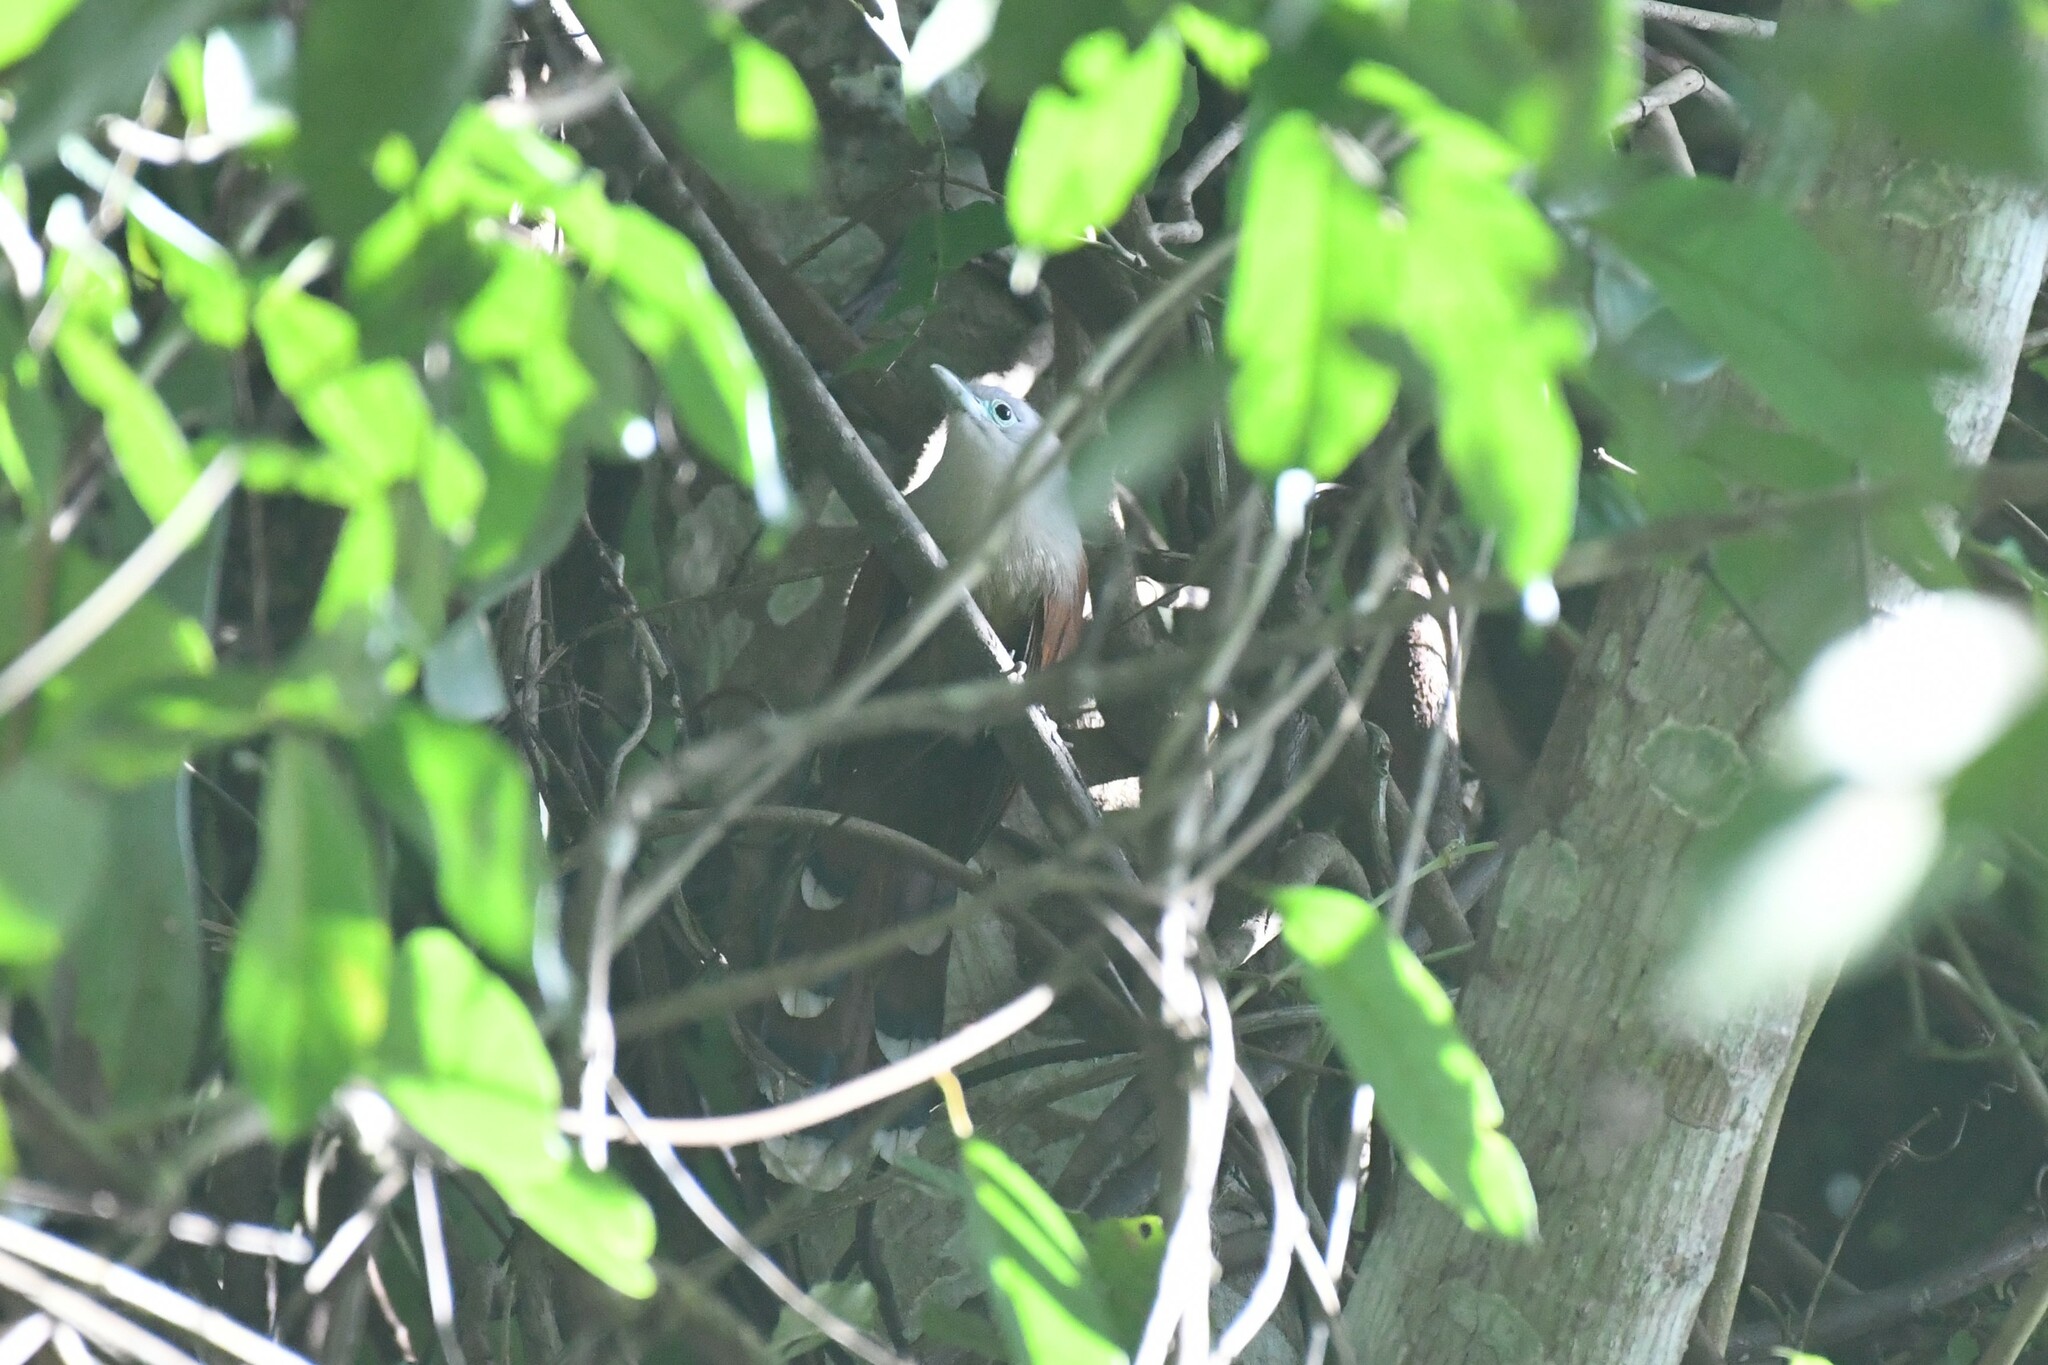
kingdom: Animalia
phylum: Chordata
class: Aves
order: Cuculiformes
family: Cuculidae
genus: Rhinortha
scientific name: Rhinortha chlorophaea
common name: Raffles's malkoha
